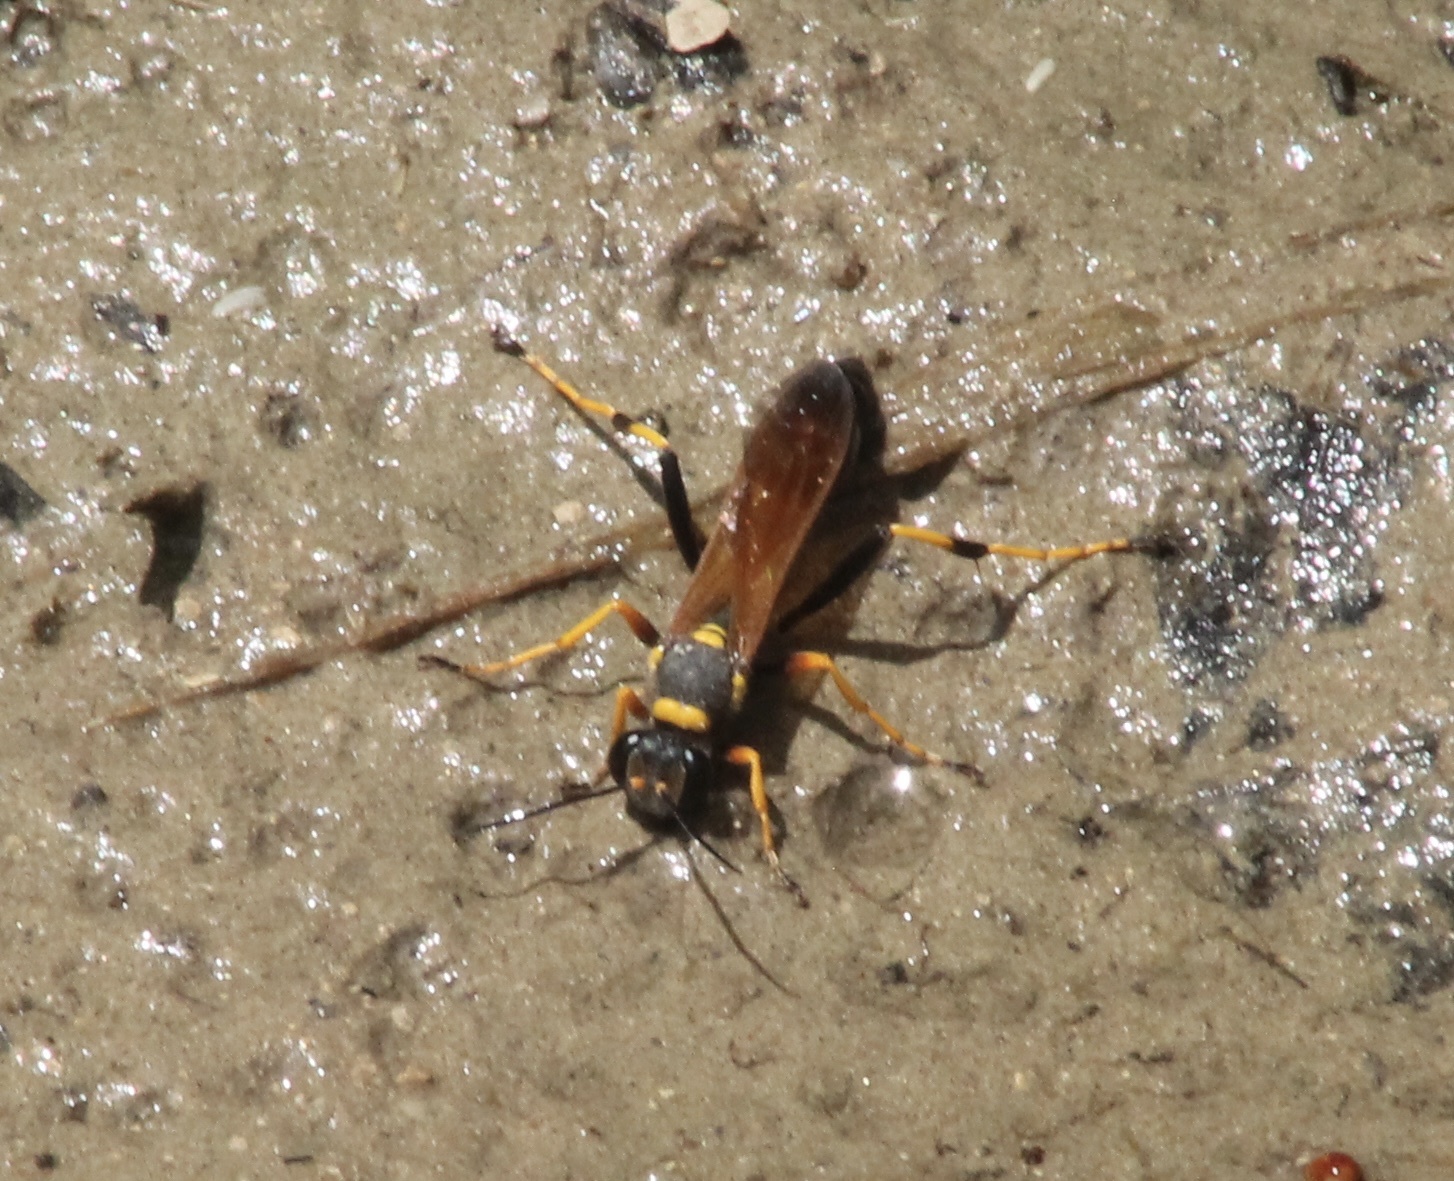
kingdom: Animalia
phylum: Arthropoda
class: Insecta
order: Hymenoptera
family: Sphecidae
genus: Sceliphron
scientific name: Sceliphron caementarium
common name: Mud dauber
